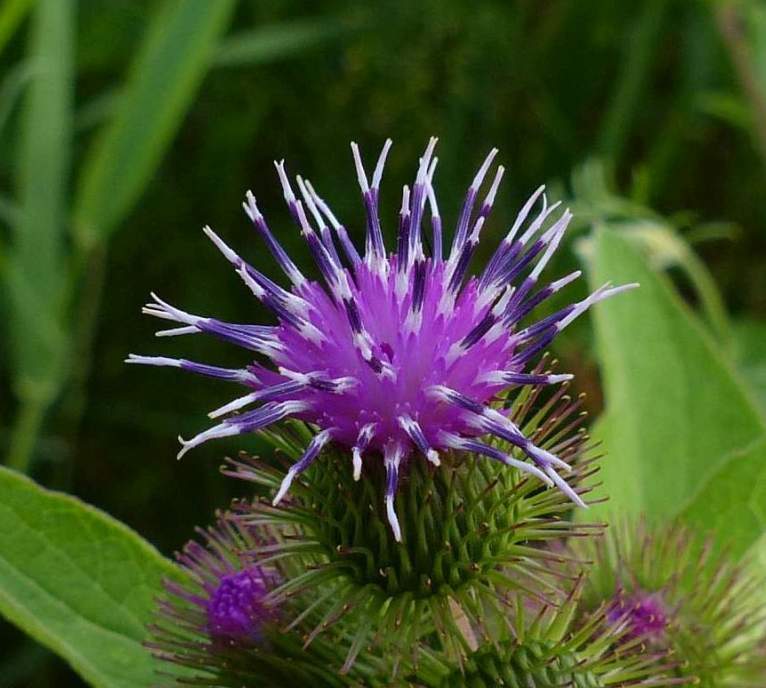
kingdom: Plantae
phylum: Tracheophyta
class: Magnoliopsida
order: Asterales
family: Asteraceae
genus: Arctium
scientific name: Arctium minus
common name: Lesser burdock
